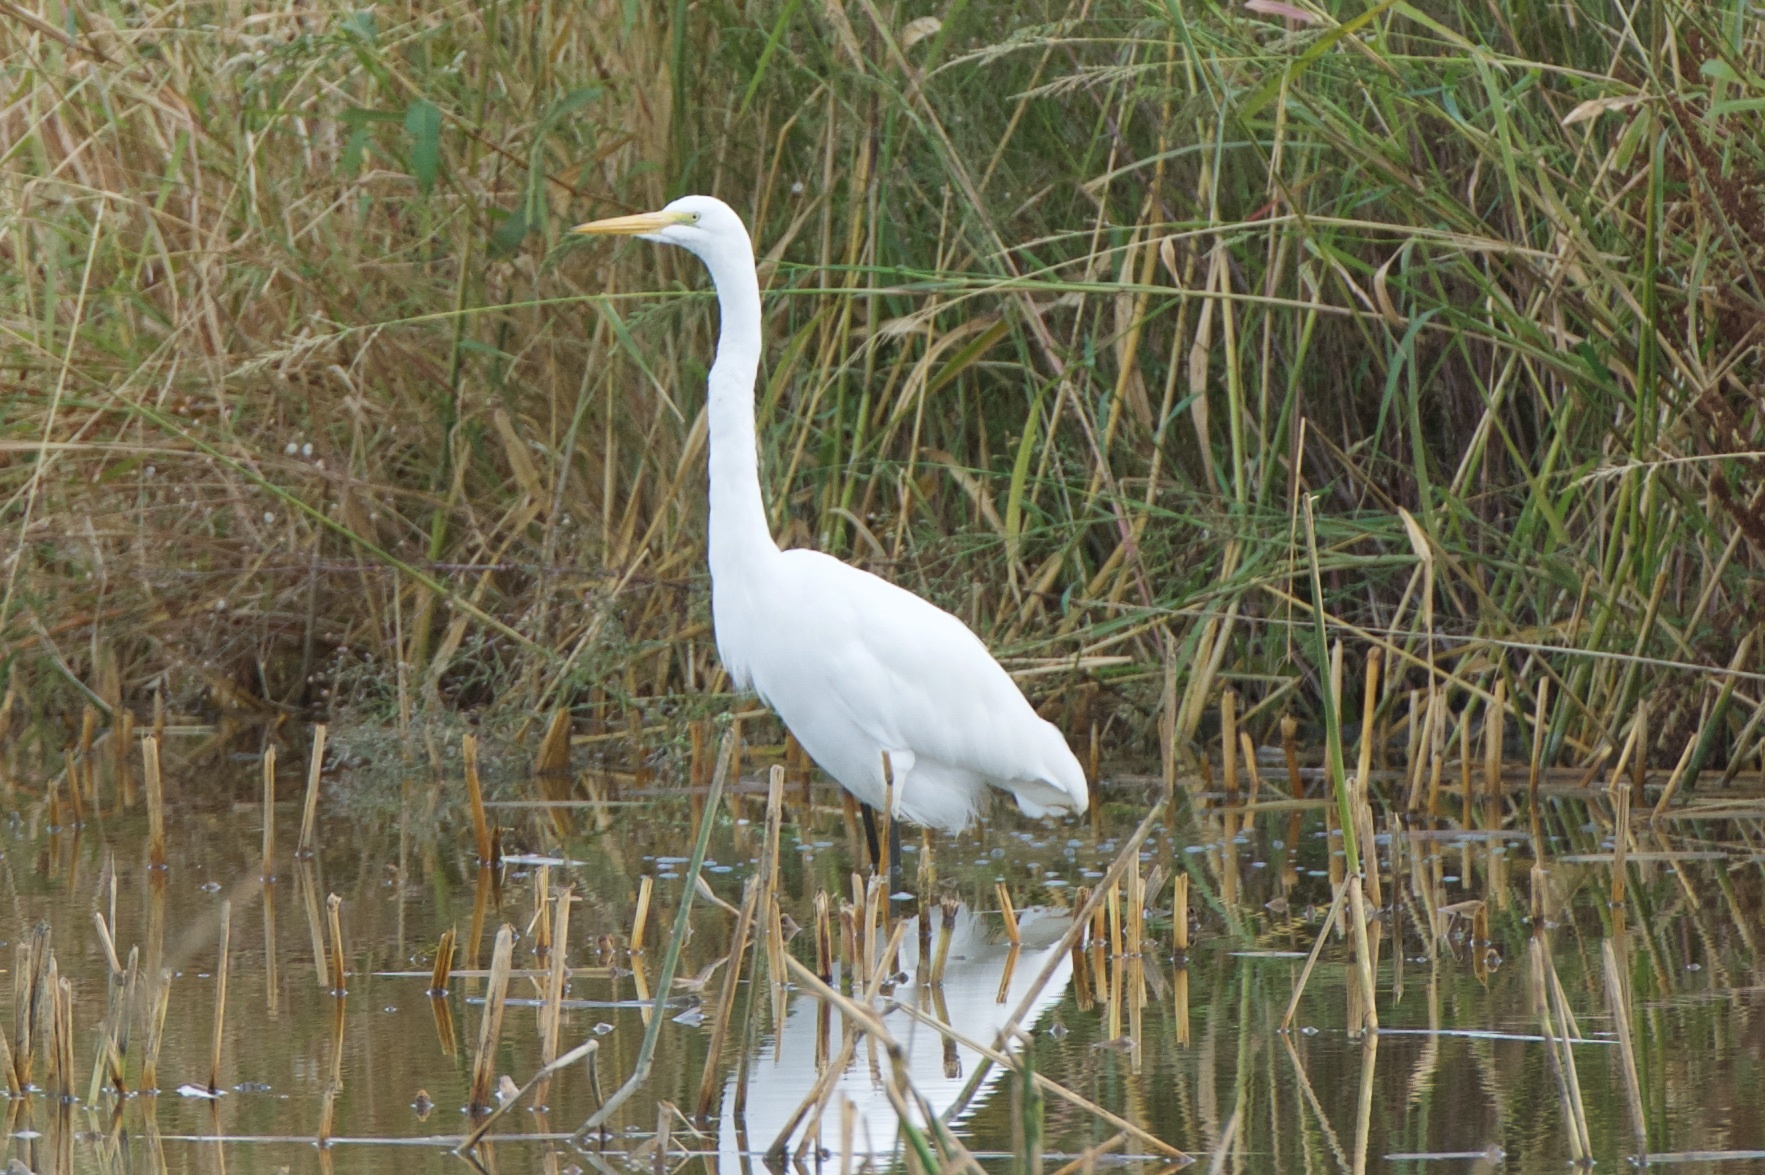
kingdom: Animalia
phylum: Chordata
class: Aves
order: Pelecaniformes
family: Ardeidae
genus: Ardea
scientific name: Ardea alba
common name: Great egret
